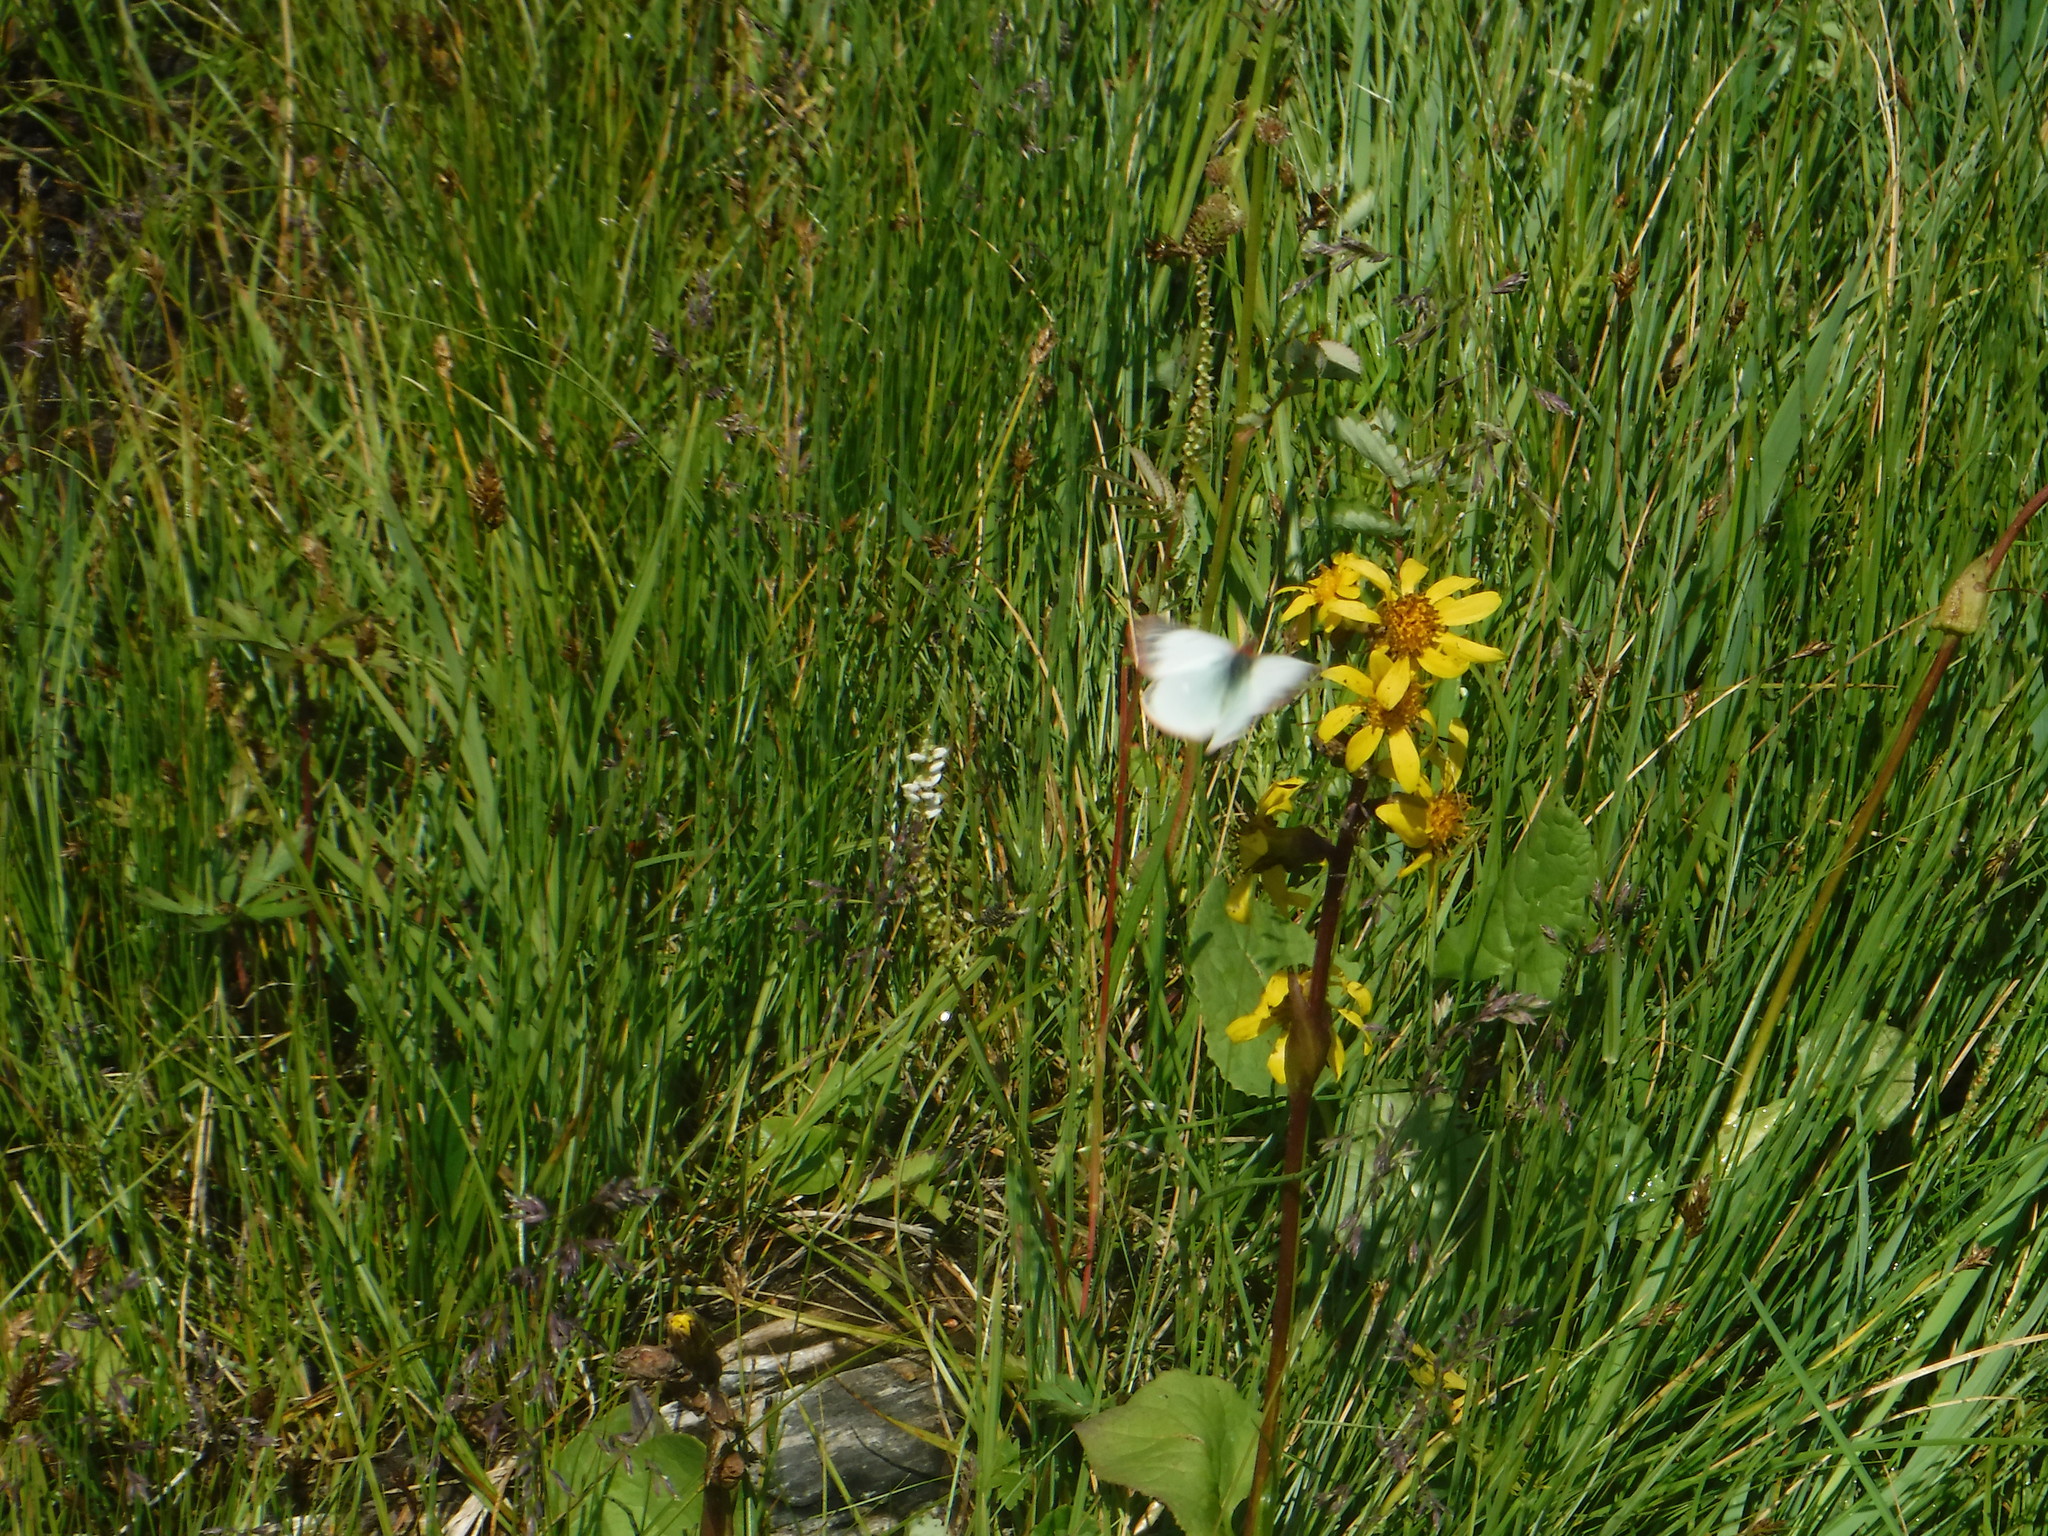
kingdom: Animalia
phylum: Arthropoda
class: Insecta
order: Lepidoptera
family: Pieridae
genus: Colias
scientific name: Colias palaeno
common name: Moorland clouded yellow
